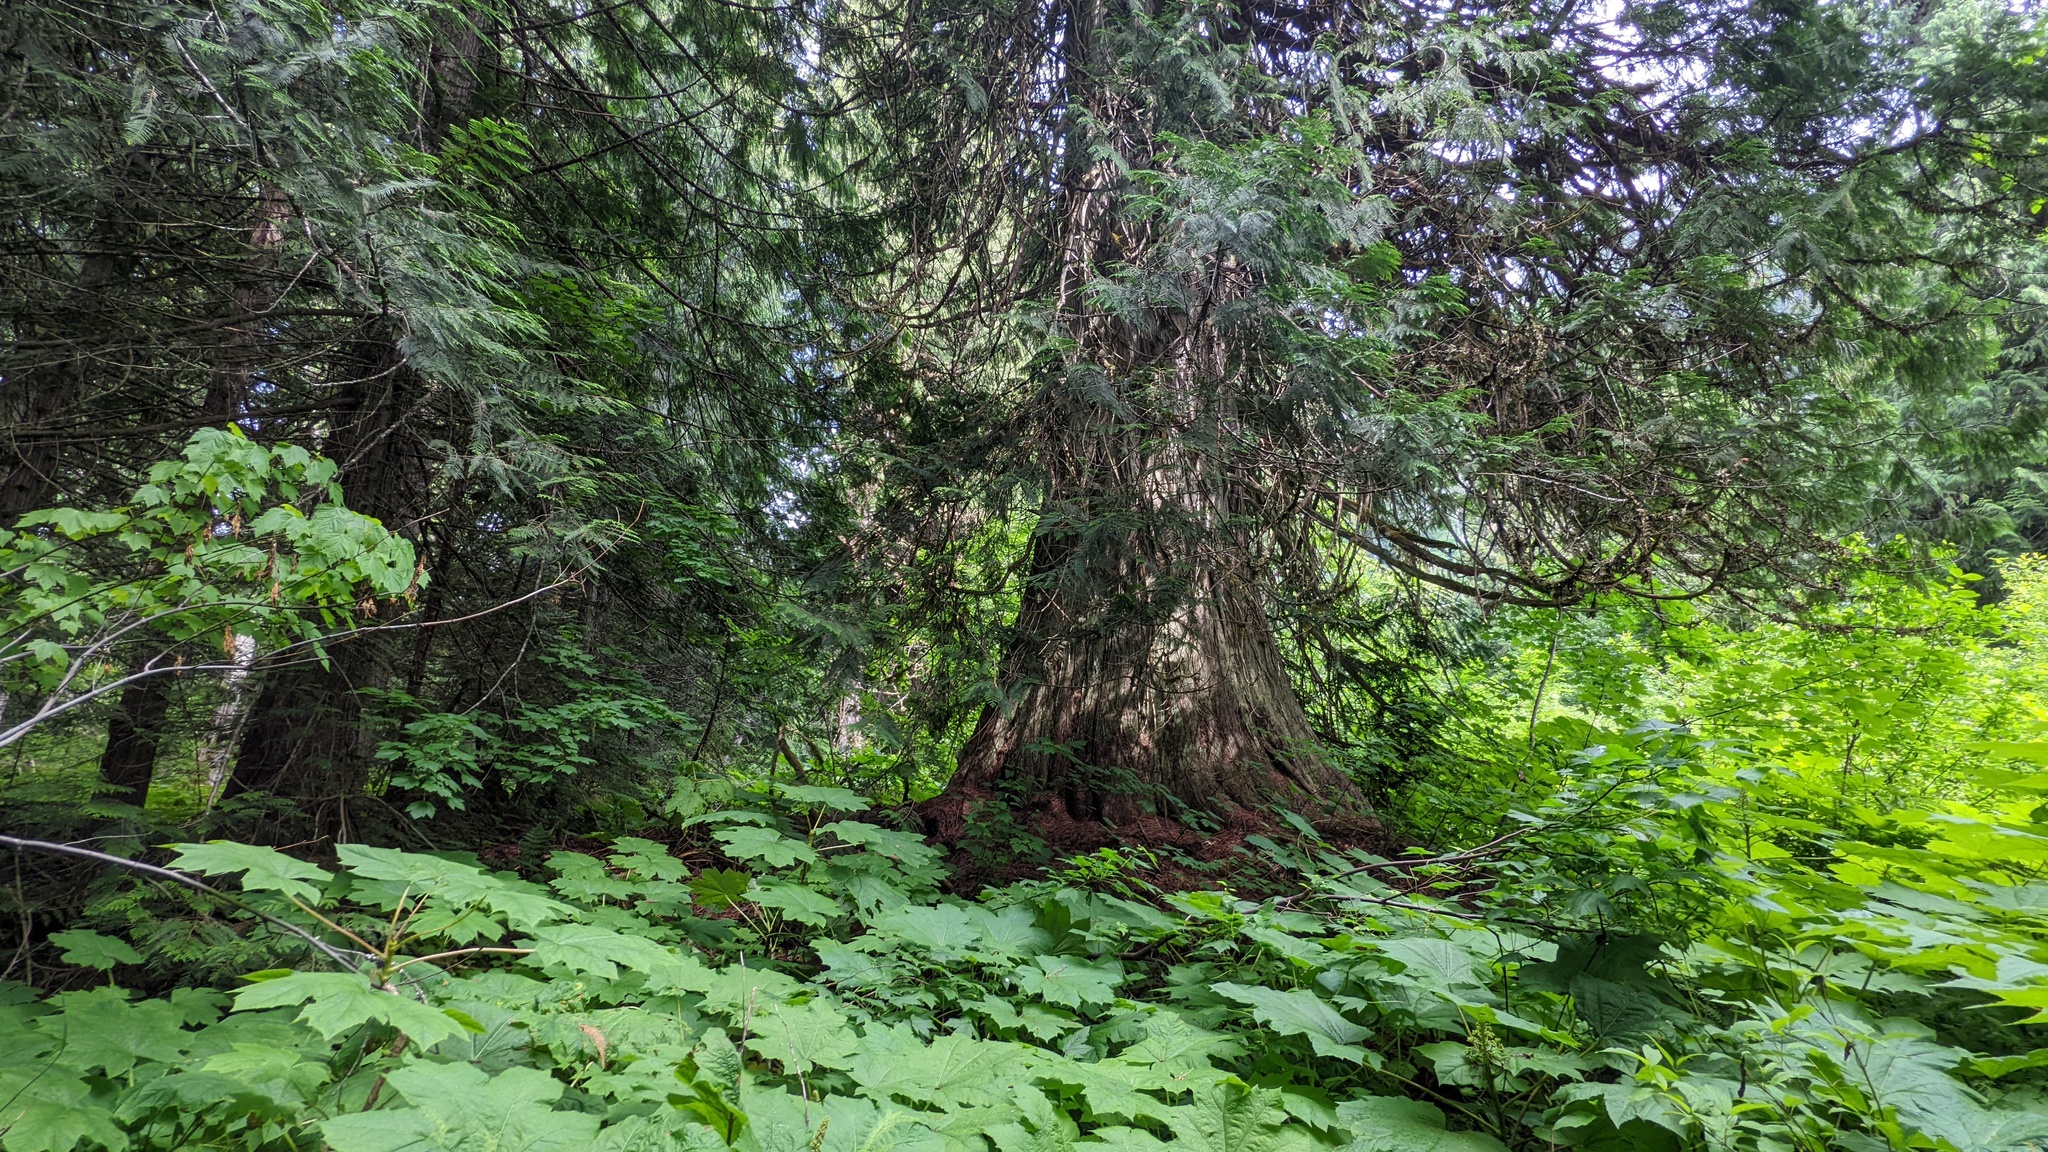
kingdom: Plantae
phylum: Tracheophyta
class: Pinopsida
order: Pinales
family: Cupressaceae
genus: Thuja
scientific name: Thuja plicata
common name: Western red-cedar
